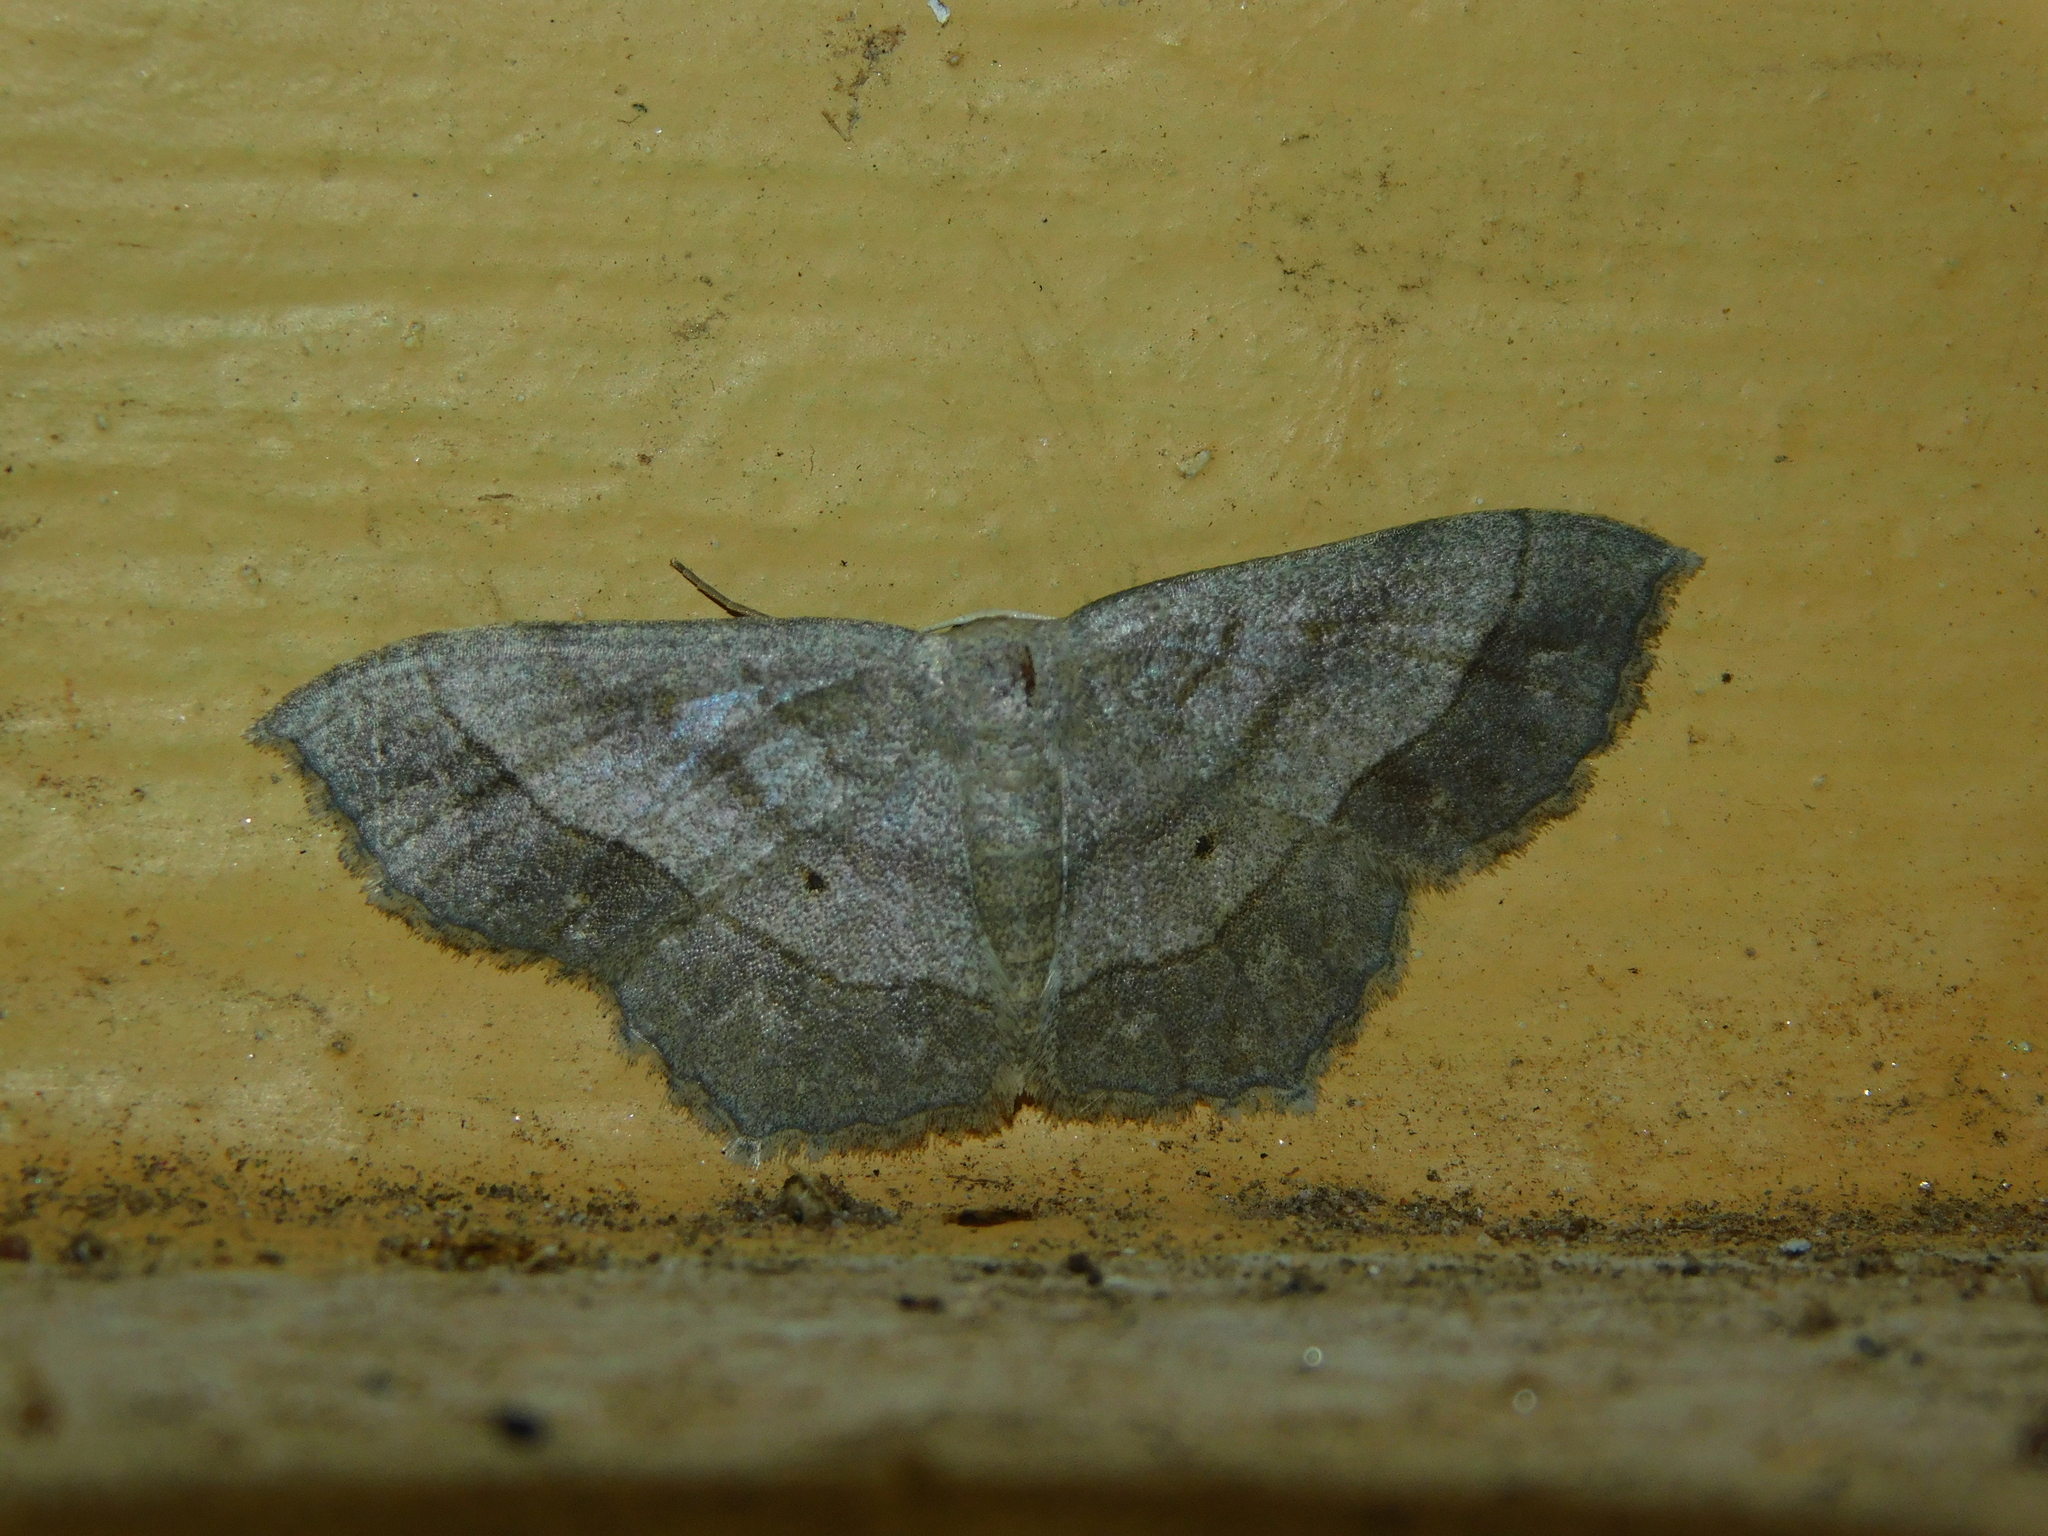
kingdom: Animalia
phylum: Arthropoda
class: Insecta
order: Lepidoptera
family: Geometridae
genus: Scopula
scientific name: Scopula modesta
